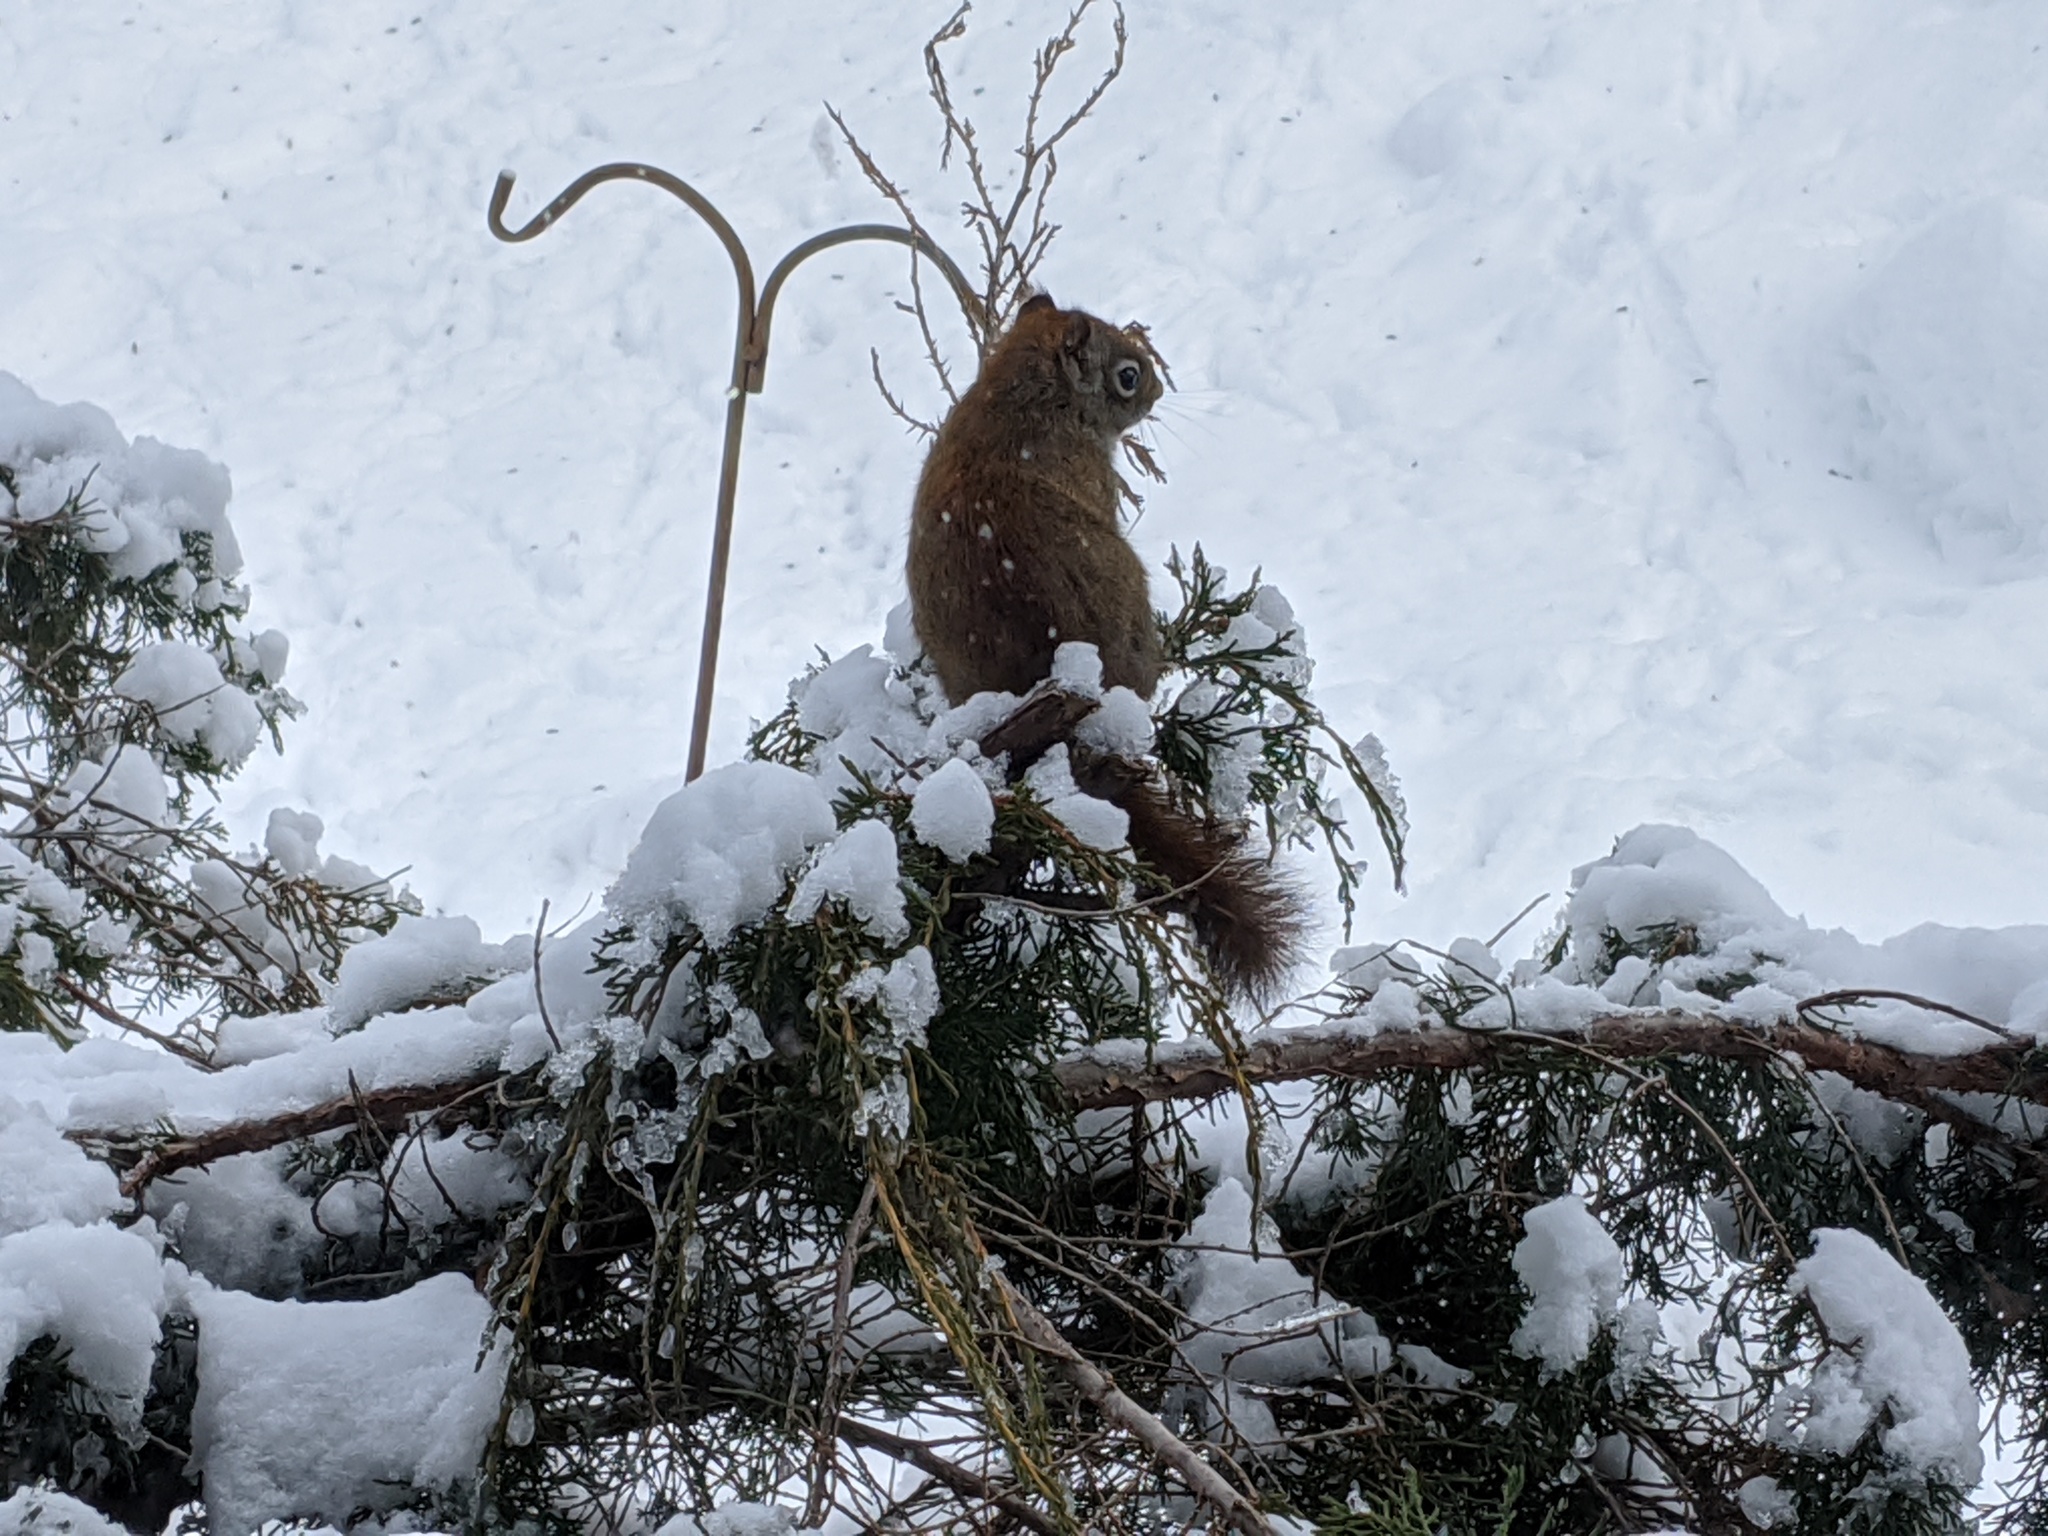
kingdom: Animalia
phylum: Chordata
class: Mammalia
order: Rodentia
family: Sciuridae
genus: Tamiasciurus
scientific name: Tamiasciurus hudsonicus
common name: Red squirrel
